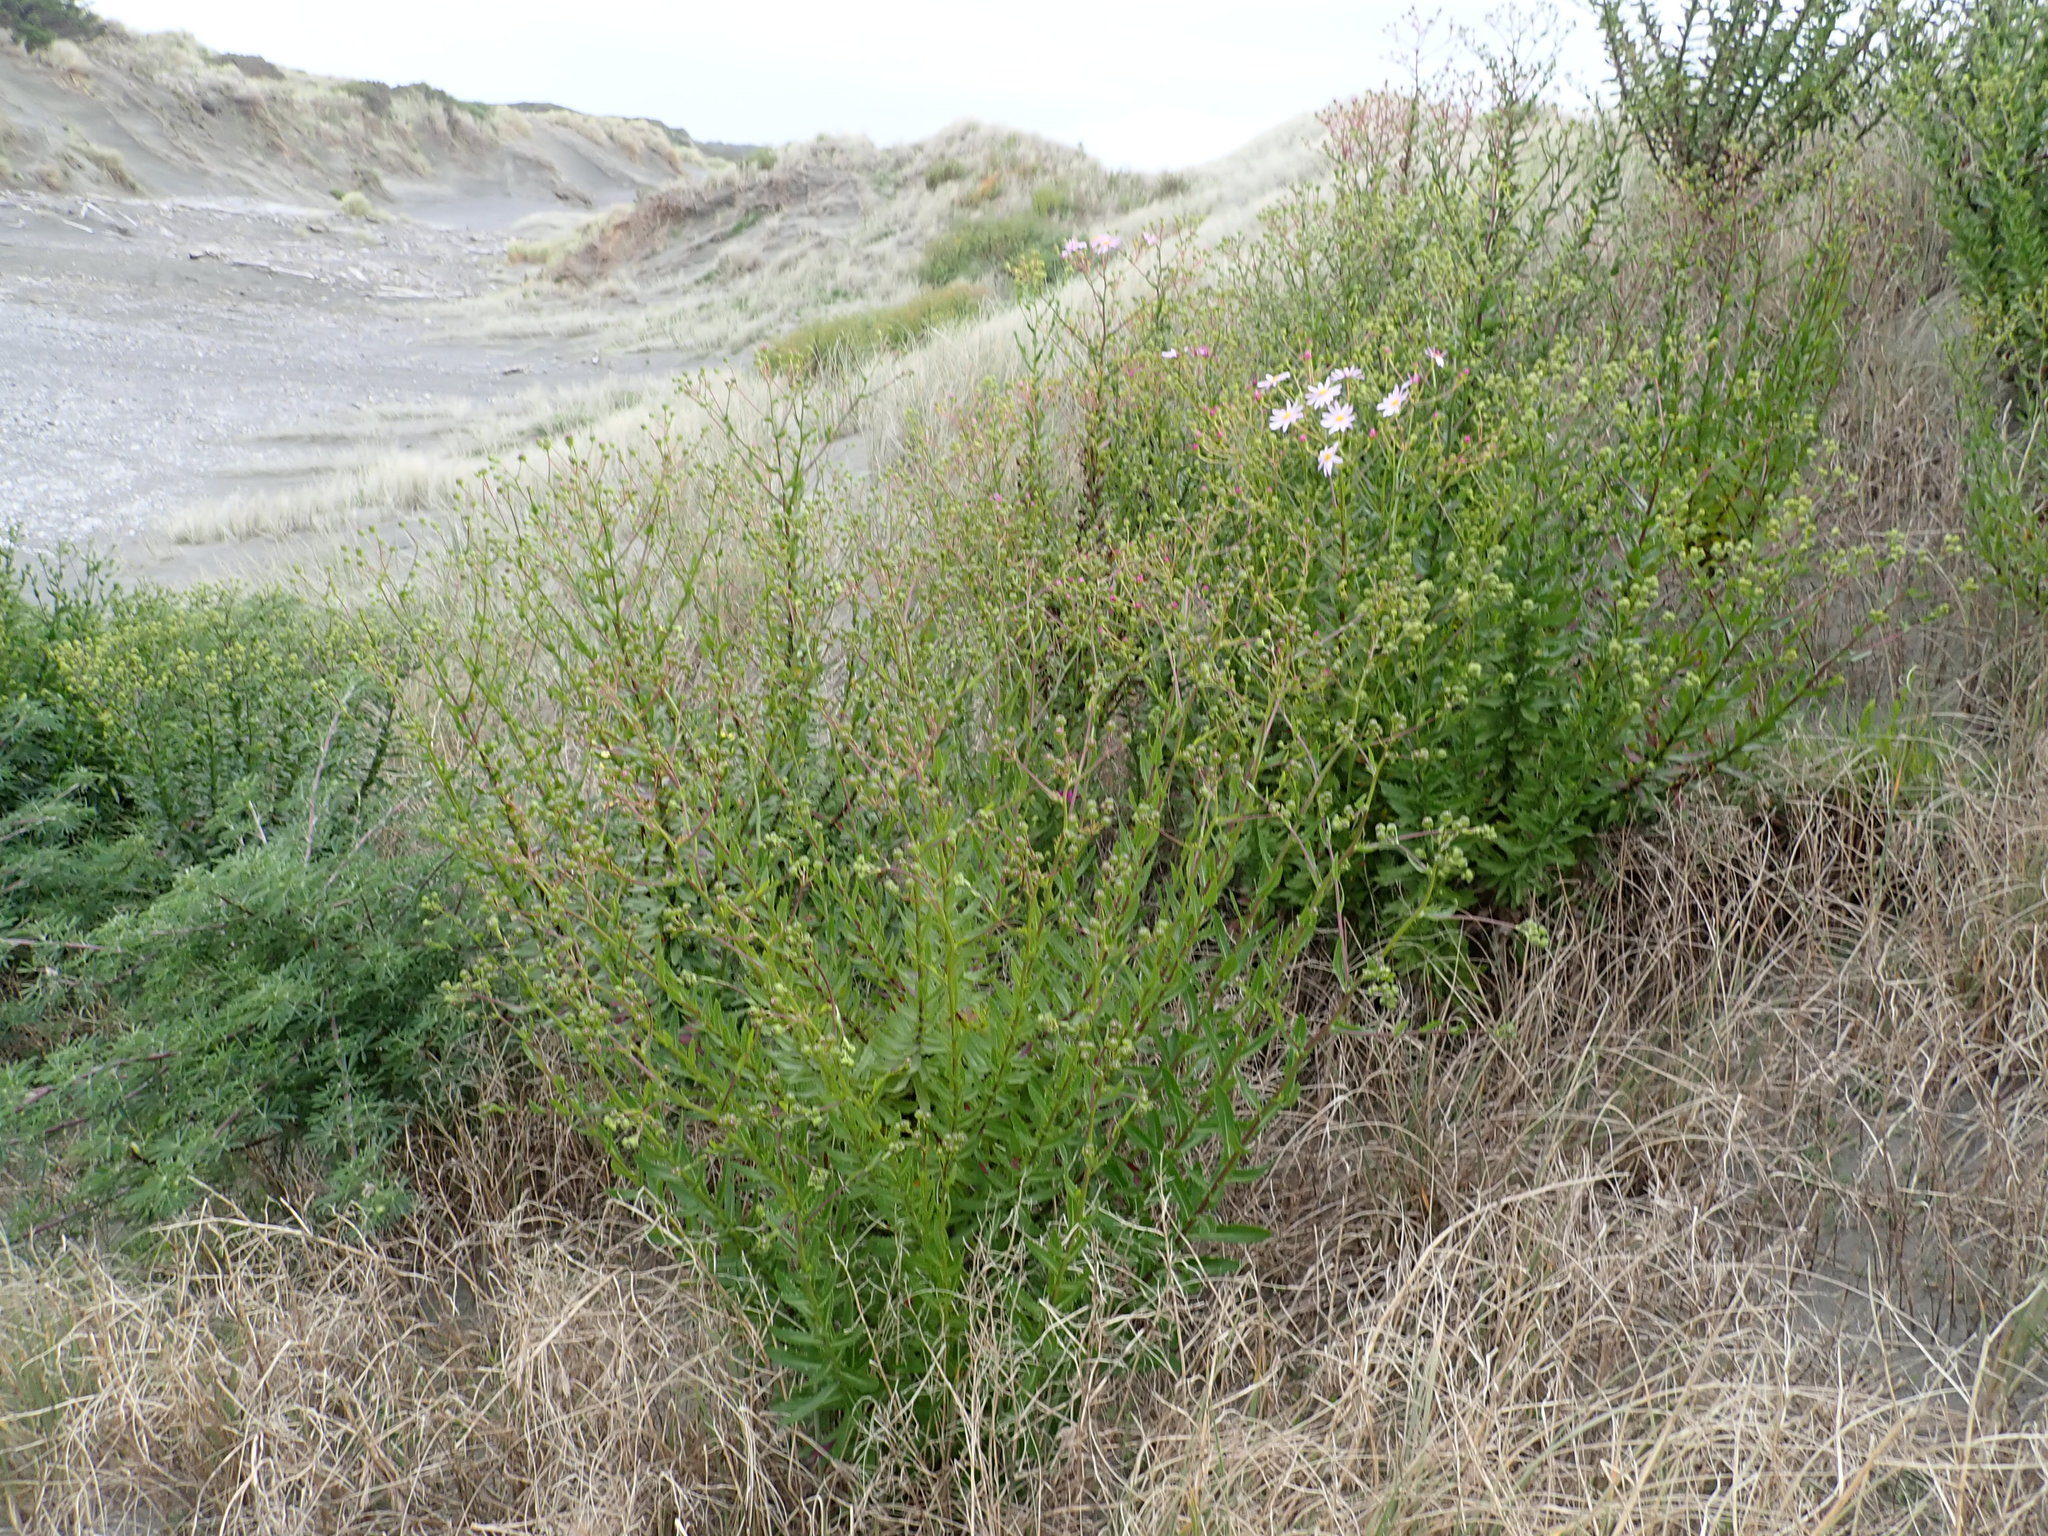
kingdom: Plantae
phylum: Tracheophyta
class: Magnoliopsida
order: Asterales
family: Asteraceae
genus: Senecio
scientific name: Senecio glastifolius
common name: Woad-leaved ragwort
